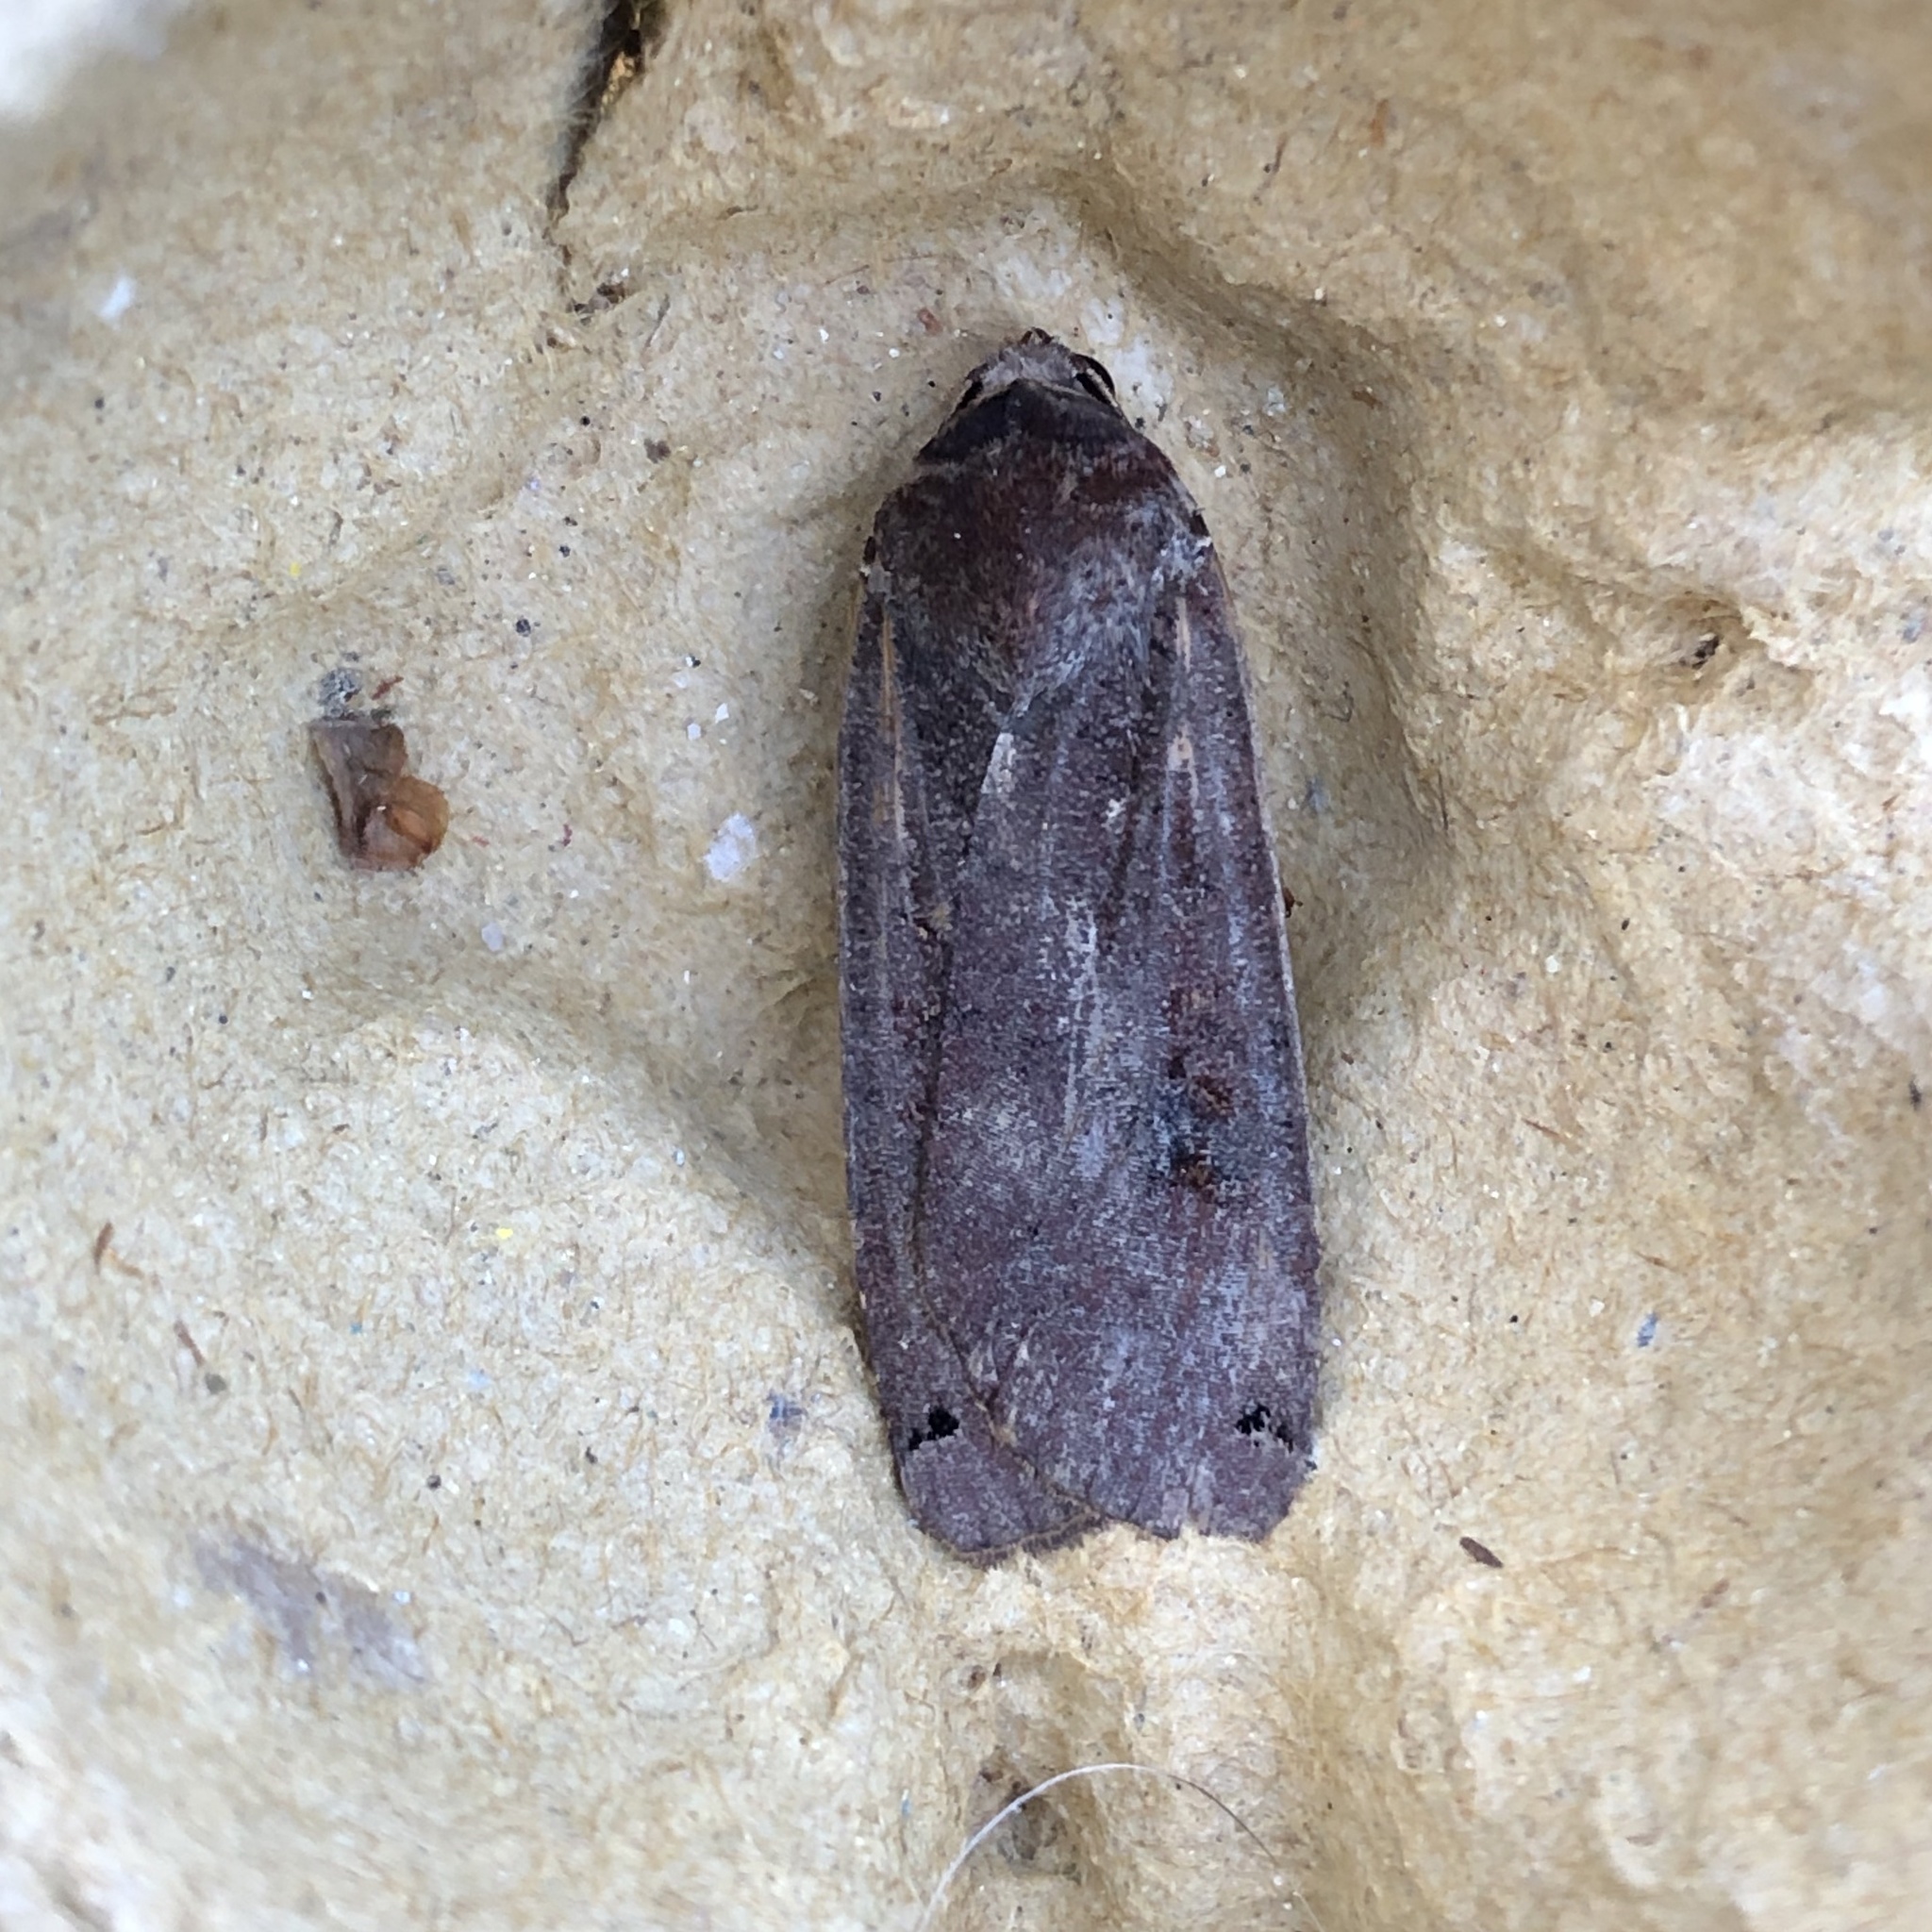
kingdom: Animalia
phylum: Arthropoda
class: Insecta
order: Lepidoptera
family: Noctuidae
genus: Noctua
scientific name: Noctua pronuba
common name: Large yellow underwing
